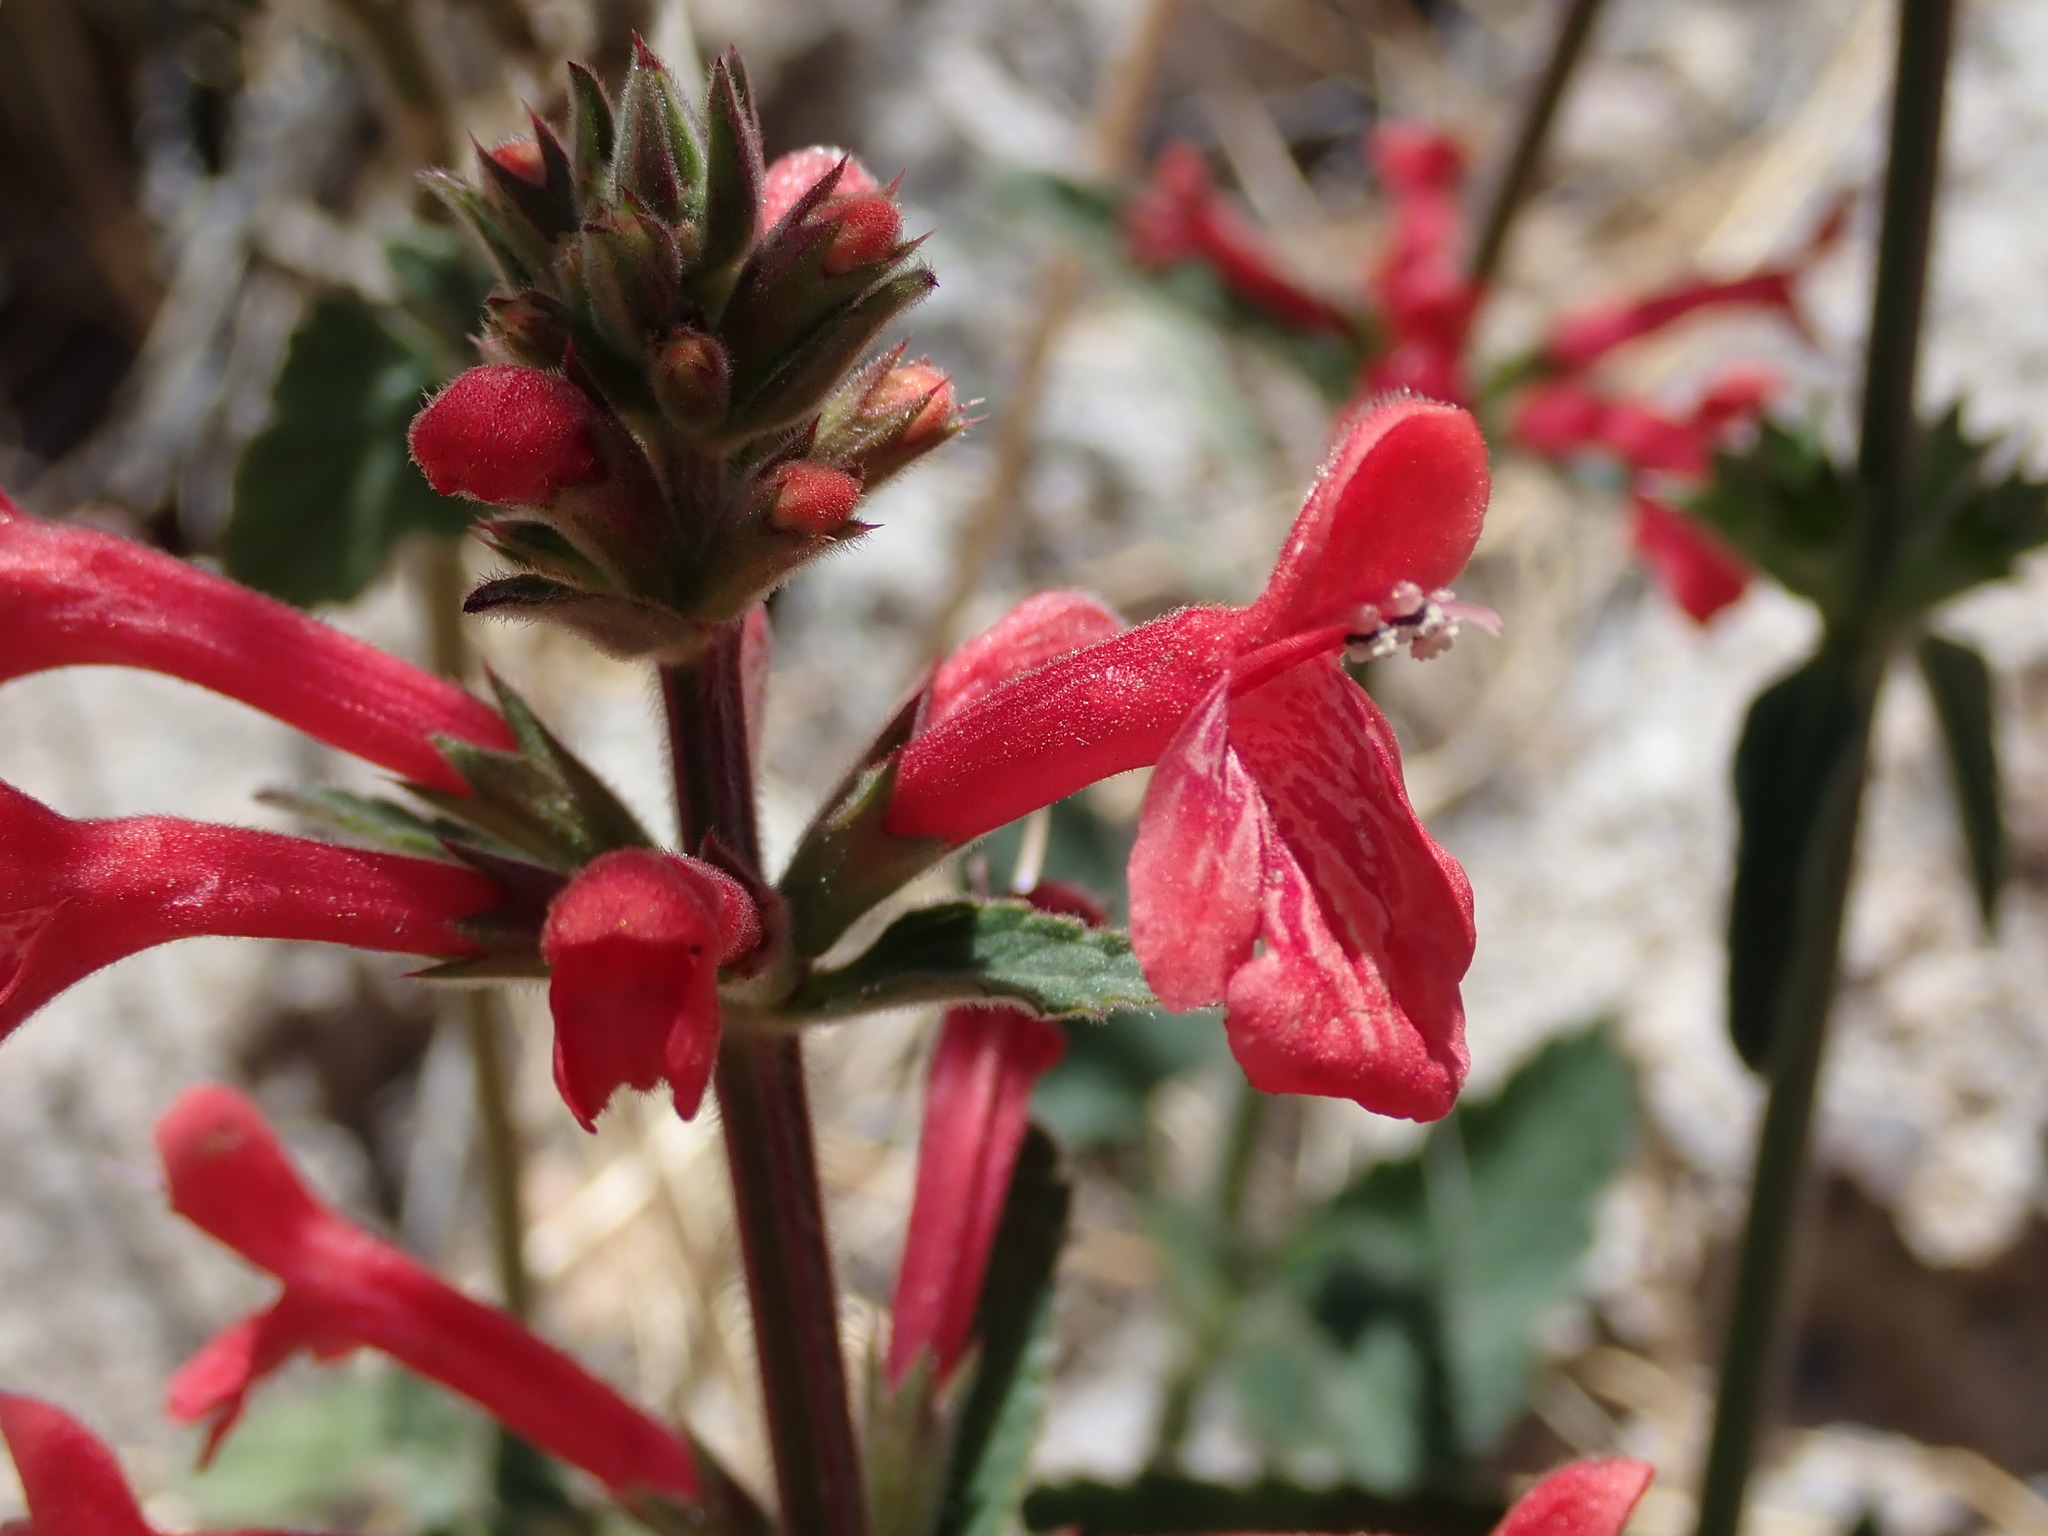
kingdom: Plantae
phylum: Tracheophyta
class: Magnoliopsida
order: Lamiales
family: Lamiaceae
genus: Stachys
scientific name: Stachys coccinea
